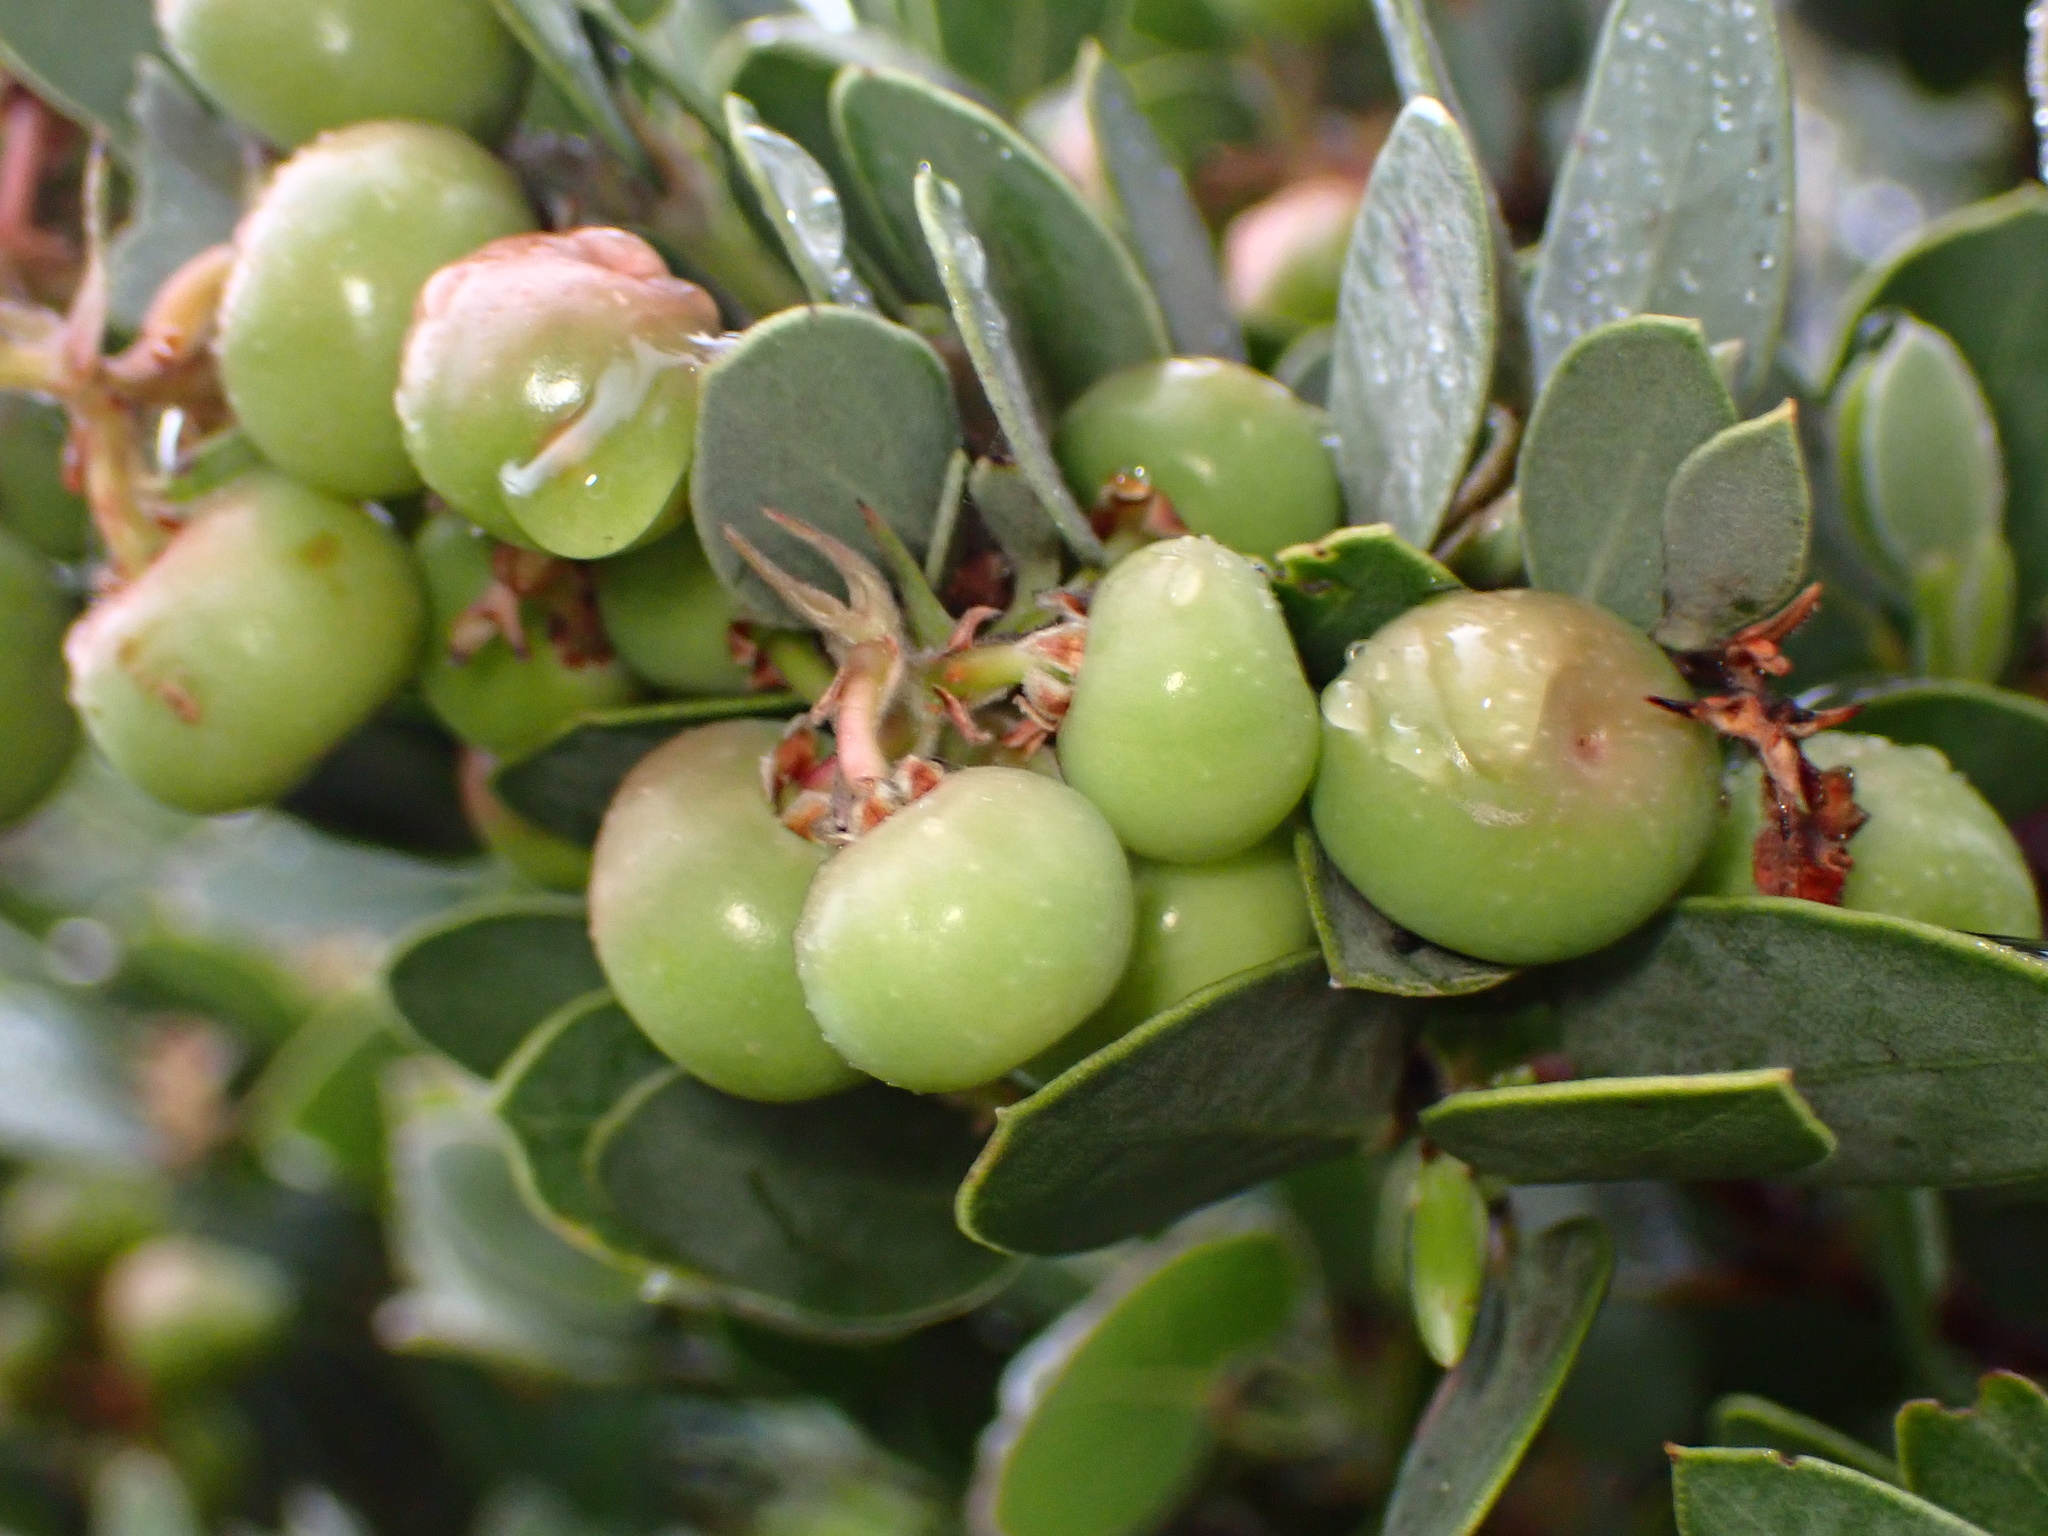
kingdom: Plantae
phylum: Tracheophyta
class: Magnoliopsida
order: Ericales
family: Ericaceae
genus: Arctostaphylos
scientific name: Arctostaphylos obispoensis
